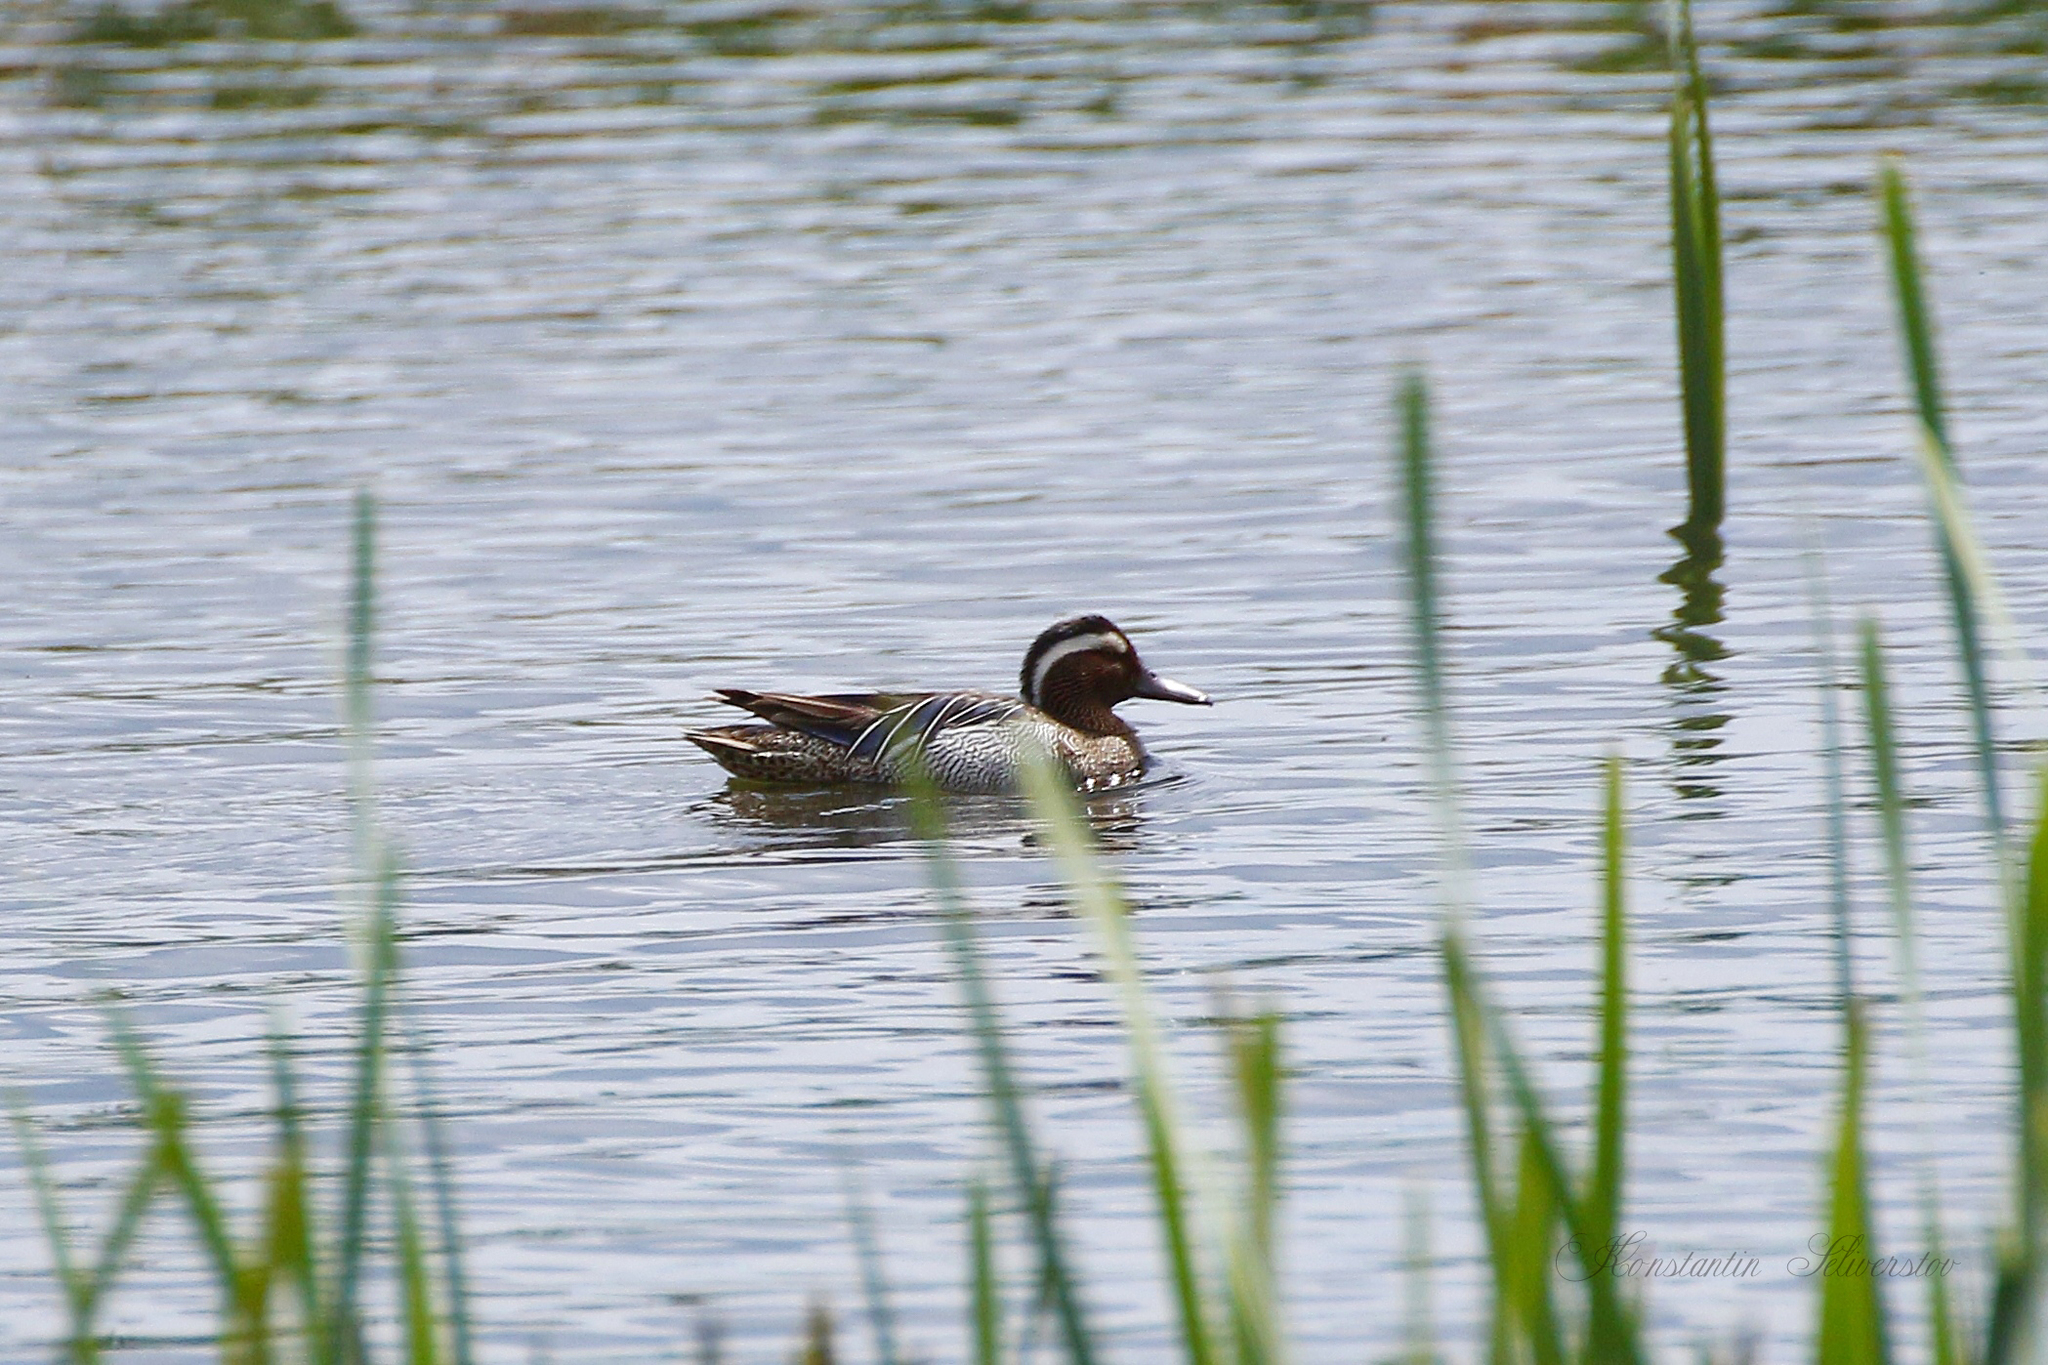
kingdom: Animalia
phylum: Chordata
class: Aves
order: Anseriformes
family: Anatidae
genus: Spatula
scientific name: Spatula querquedula
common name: Garganey
